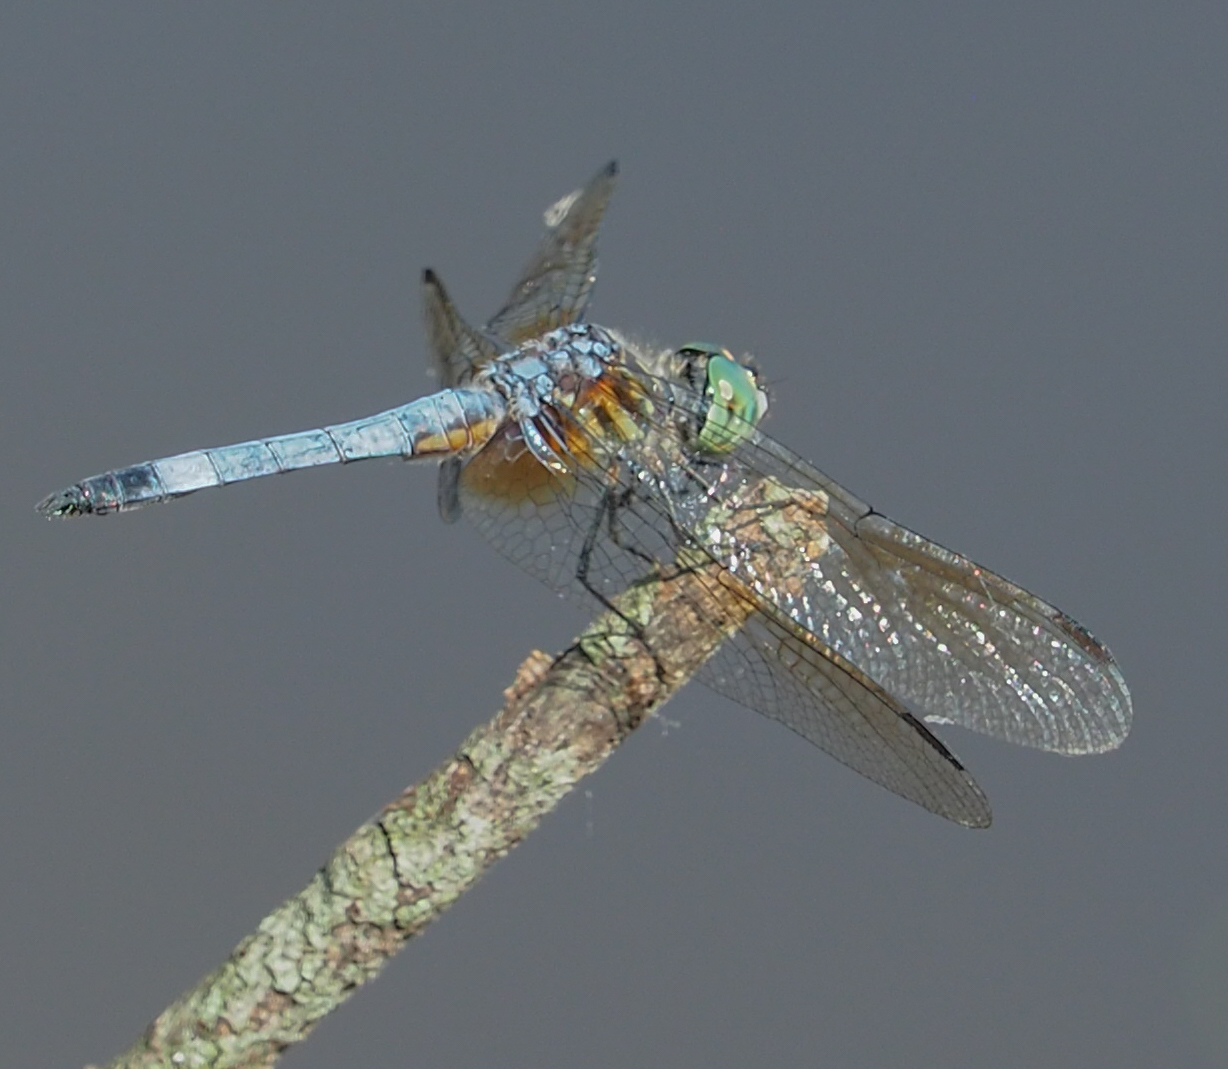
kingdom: Animalia
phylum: Arthropoda
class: Insecta
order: Odonata
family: Libellulidae
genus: Pachydiplax
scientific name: Pachydiplax longipennis
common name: Blue dasher
